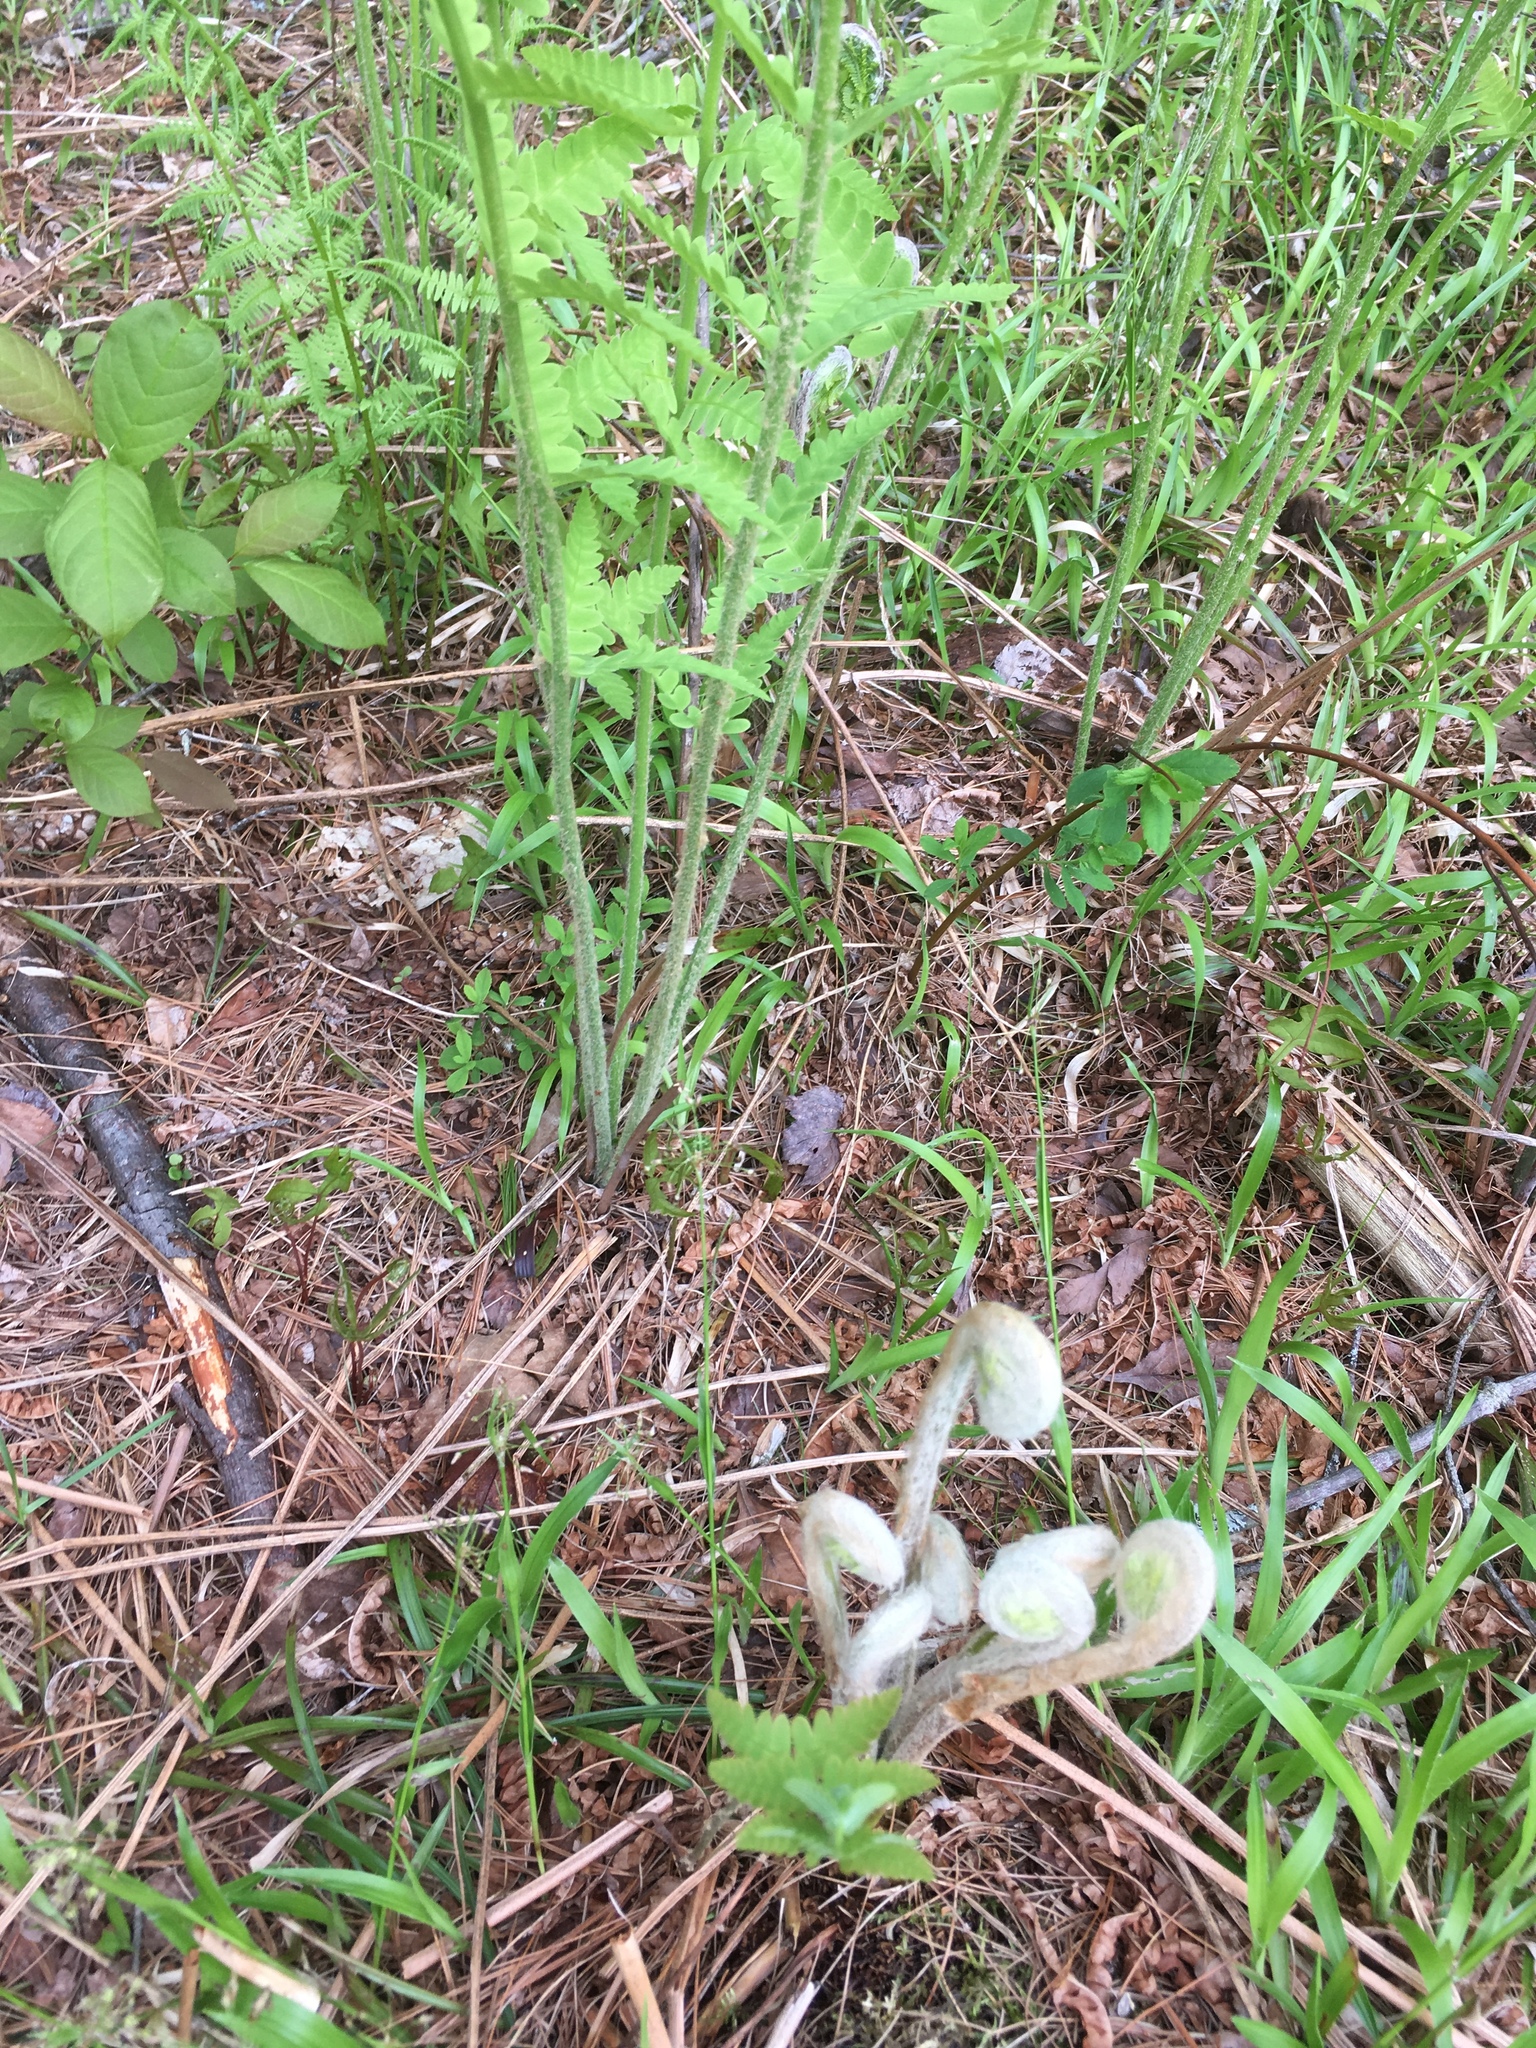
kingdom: Plantae
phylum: Tracheophyta
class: Polypodiopsida
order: Osmundales
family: Osmundaceae
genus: Claytosmunda
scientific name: Claytosmunda claytoniana
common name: Clayton's fern
